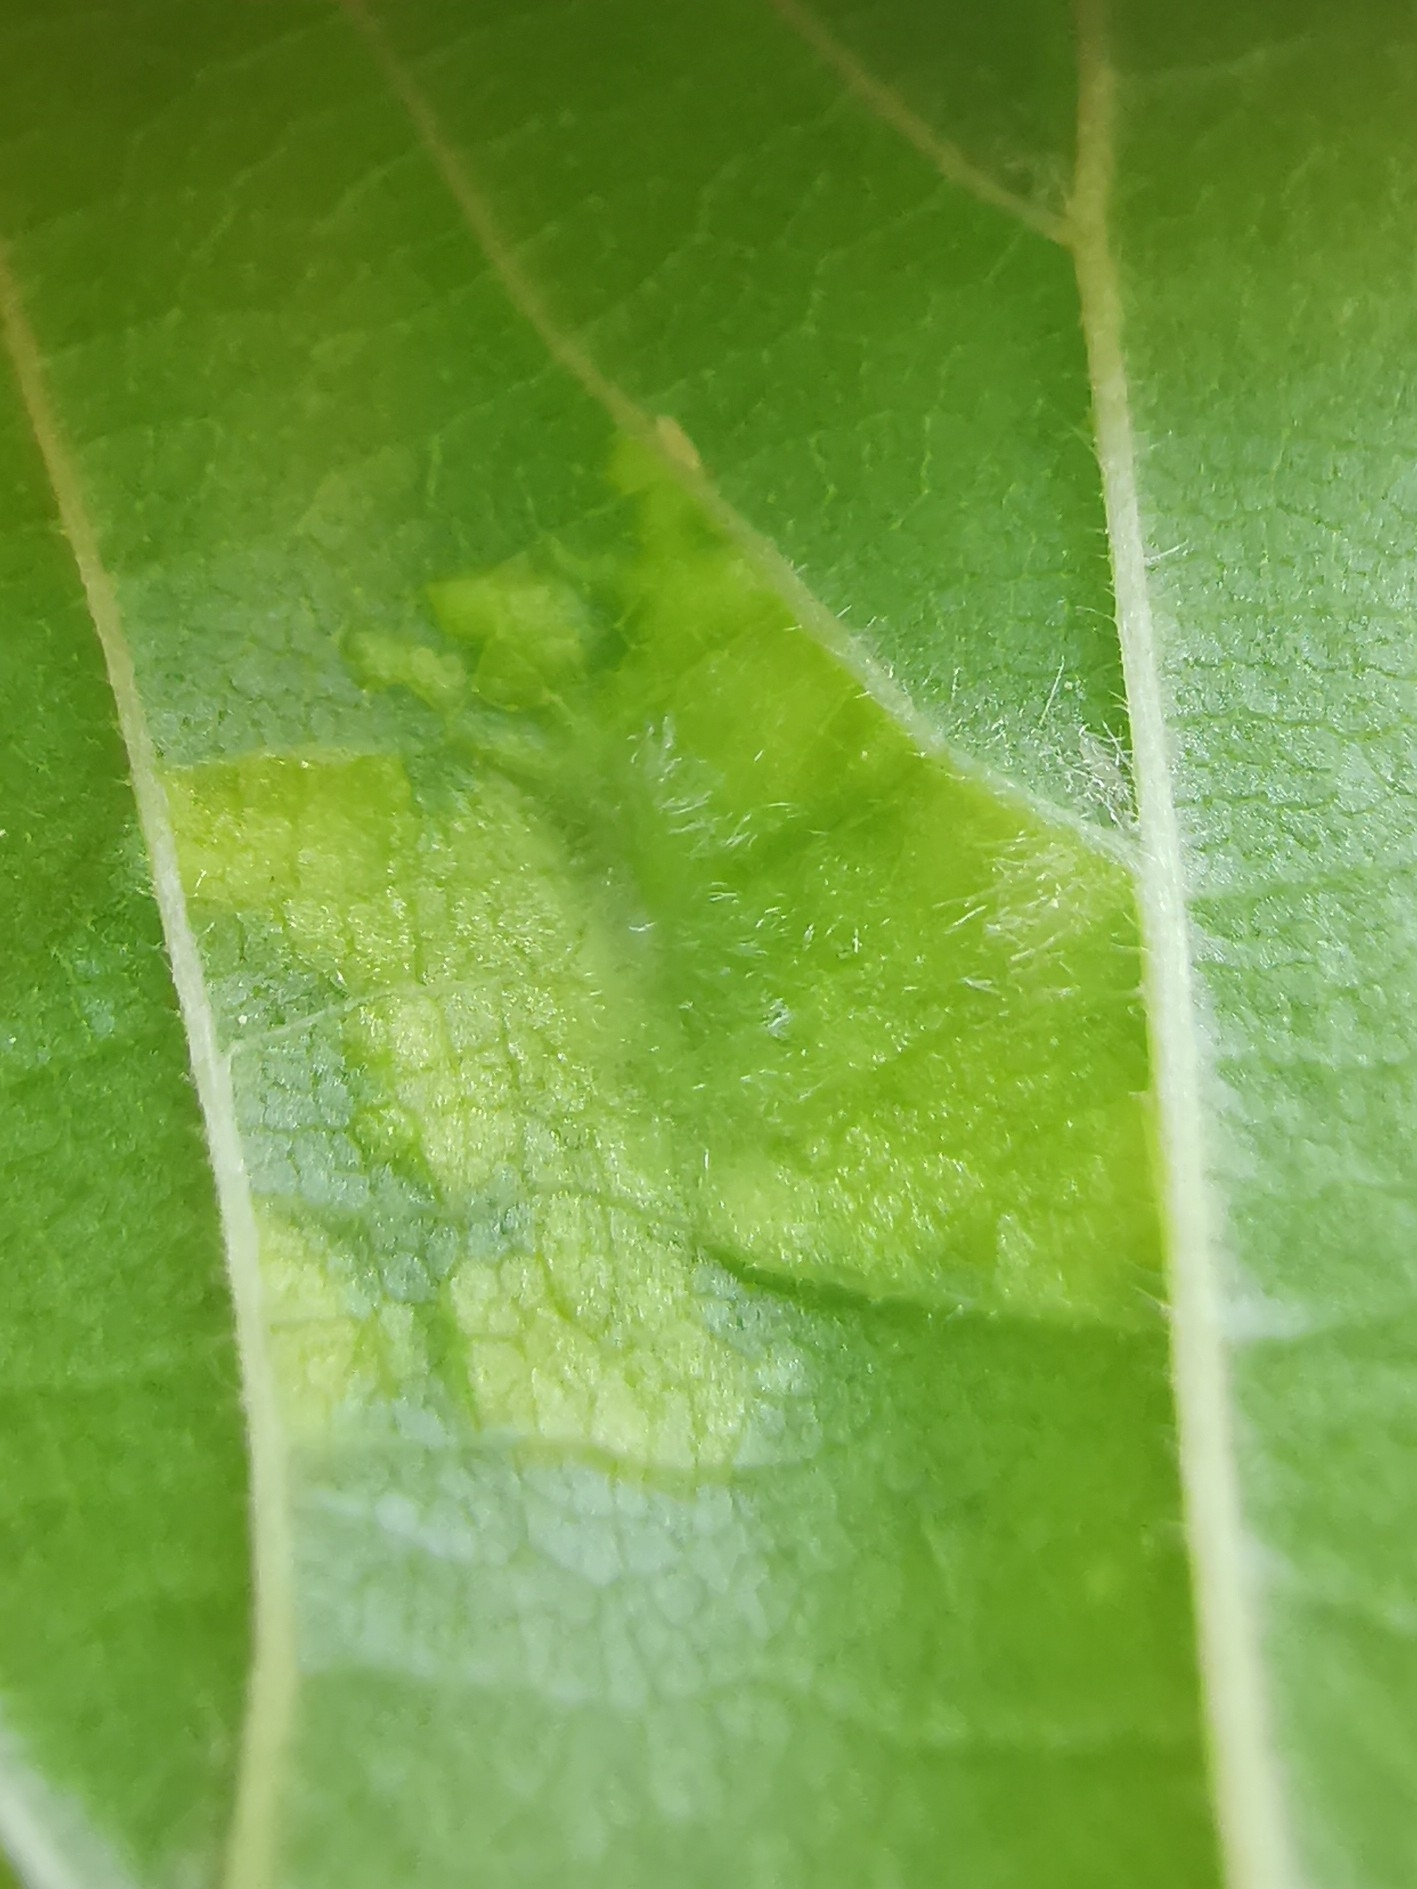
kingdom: Animalia
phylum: Arthropoda
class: Insecta
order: Hemiptera
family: Aphididae
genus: Tetraneura
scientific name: Tetraneura nigriabdominalis
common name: Aphid
